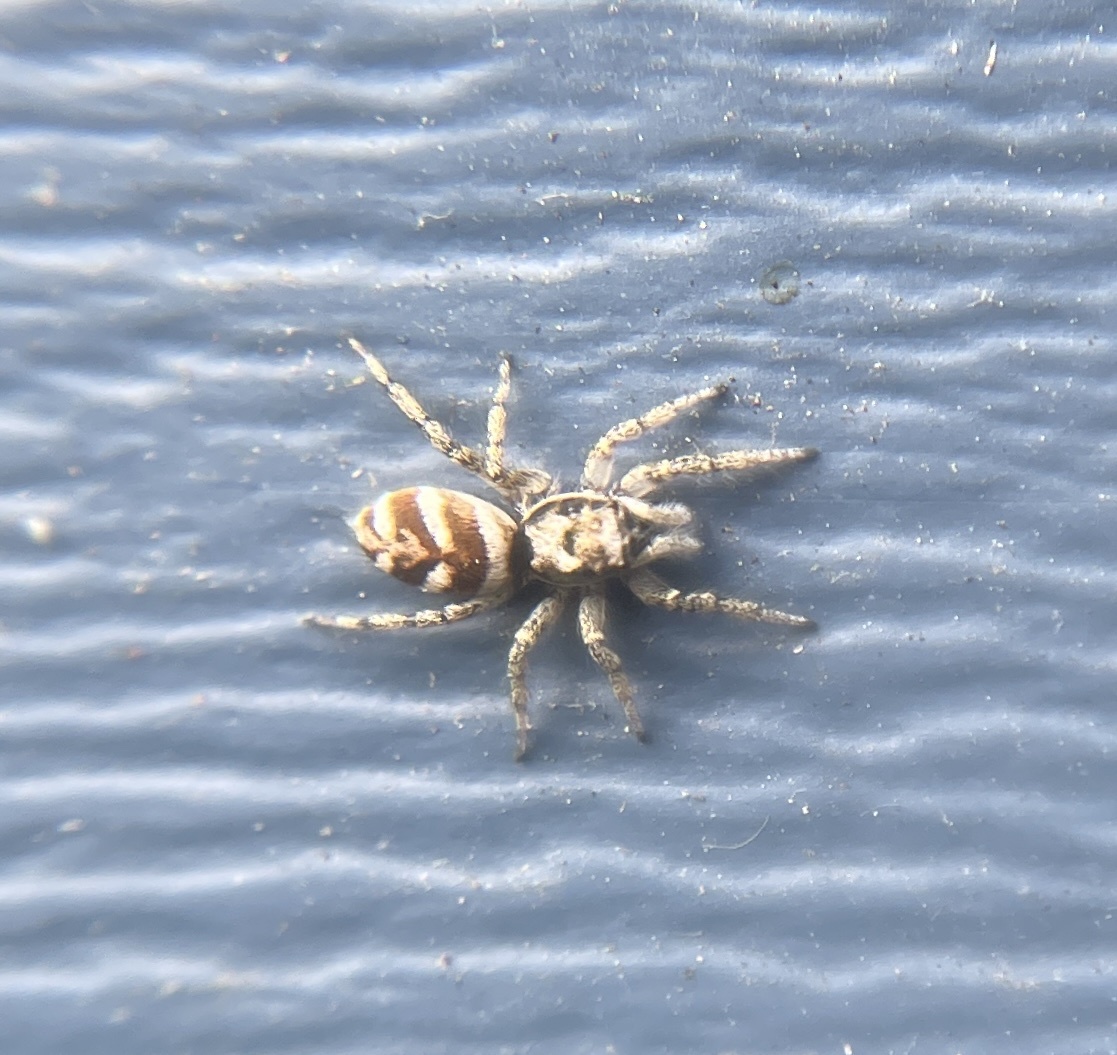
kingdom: Animalia
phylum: Arthropoda
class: Arachnida
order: Araneae
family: Salticidae
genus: Salticus
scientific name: Salticus scenicus
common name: Zebra jumper
